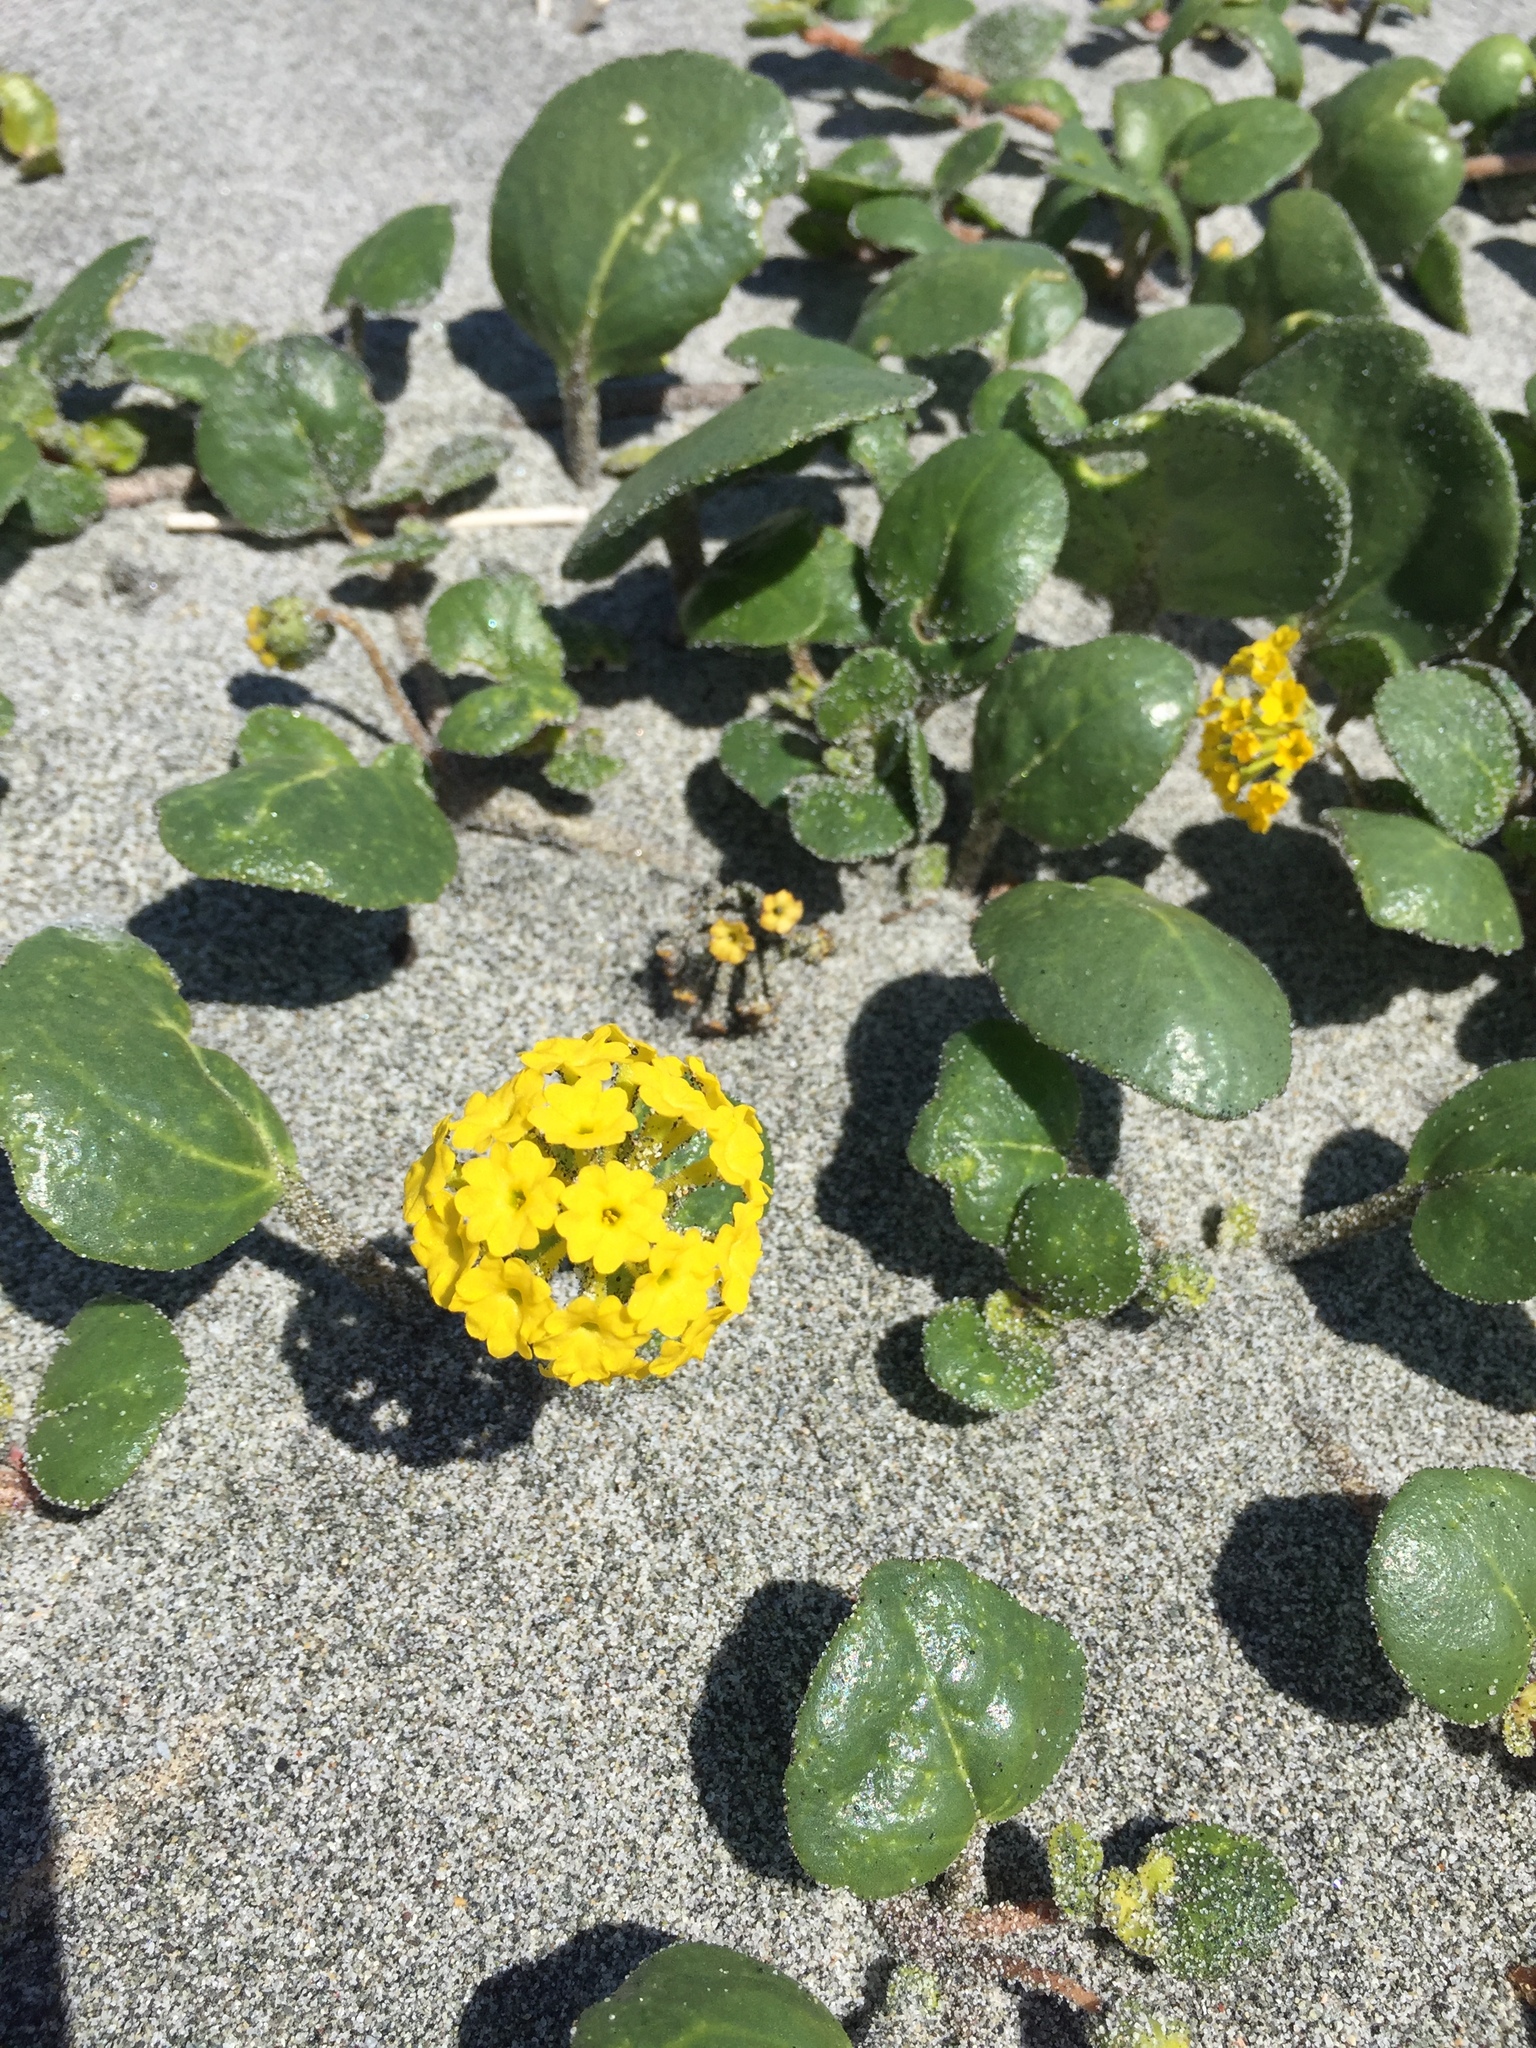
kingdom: Plantae
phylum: Tracheophyta
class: Magnoliopsida
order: Caryophyllales
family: Nyctaginaceae
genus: Abronia
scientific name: Abronia latifolia
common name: Yellow sand-verbena
